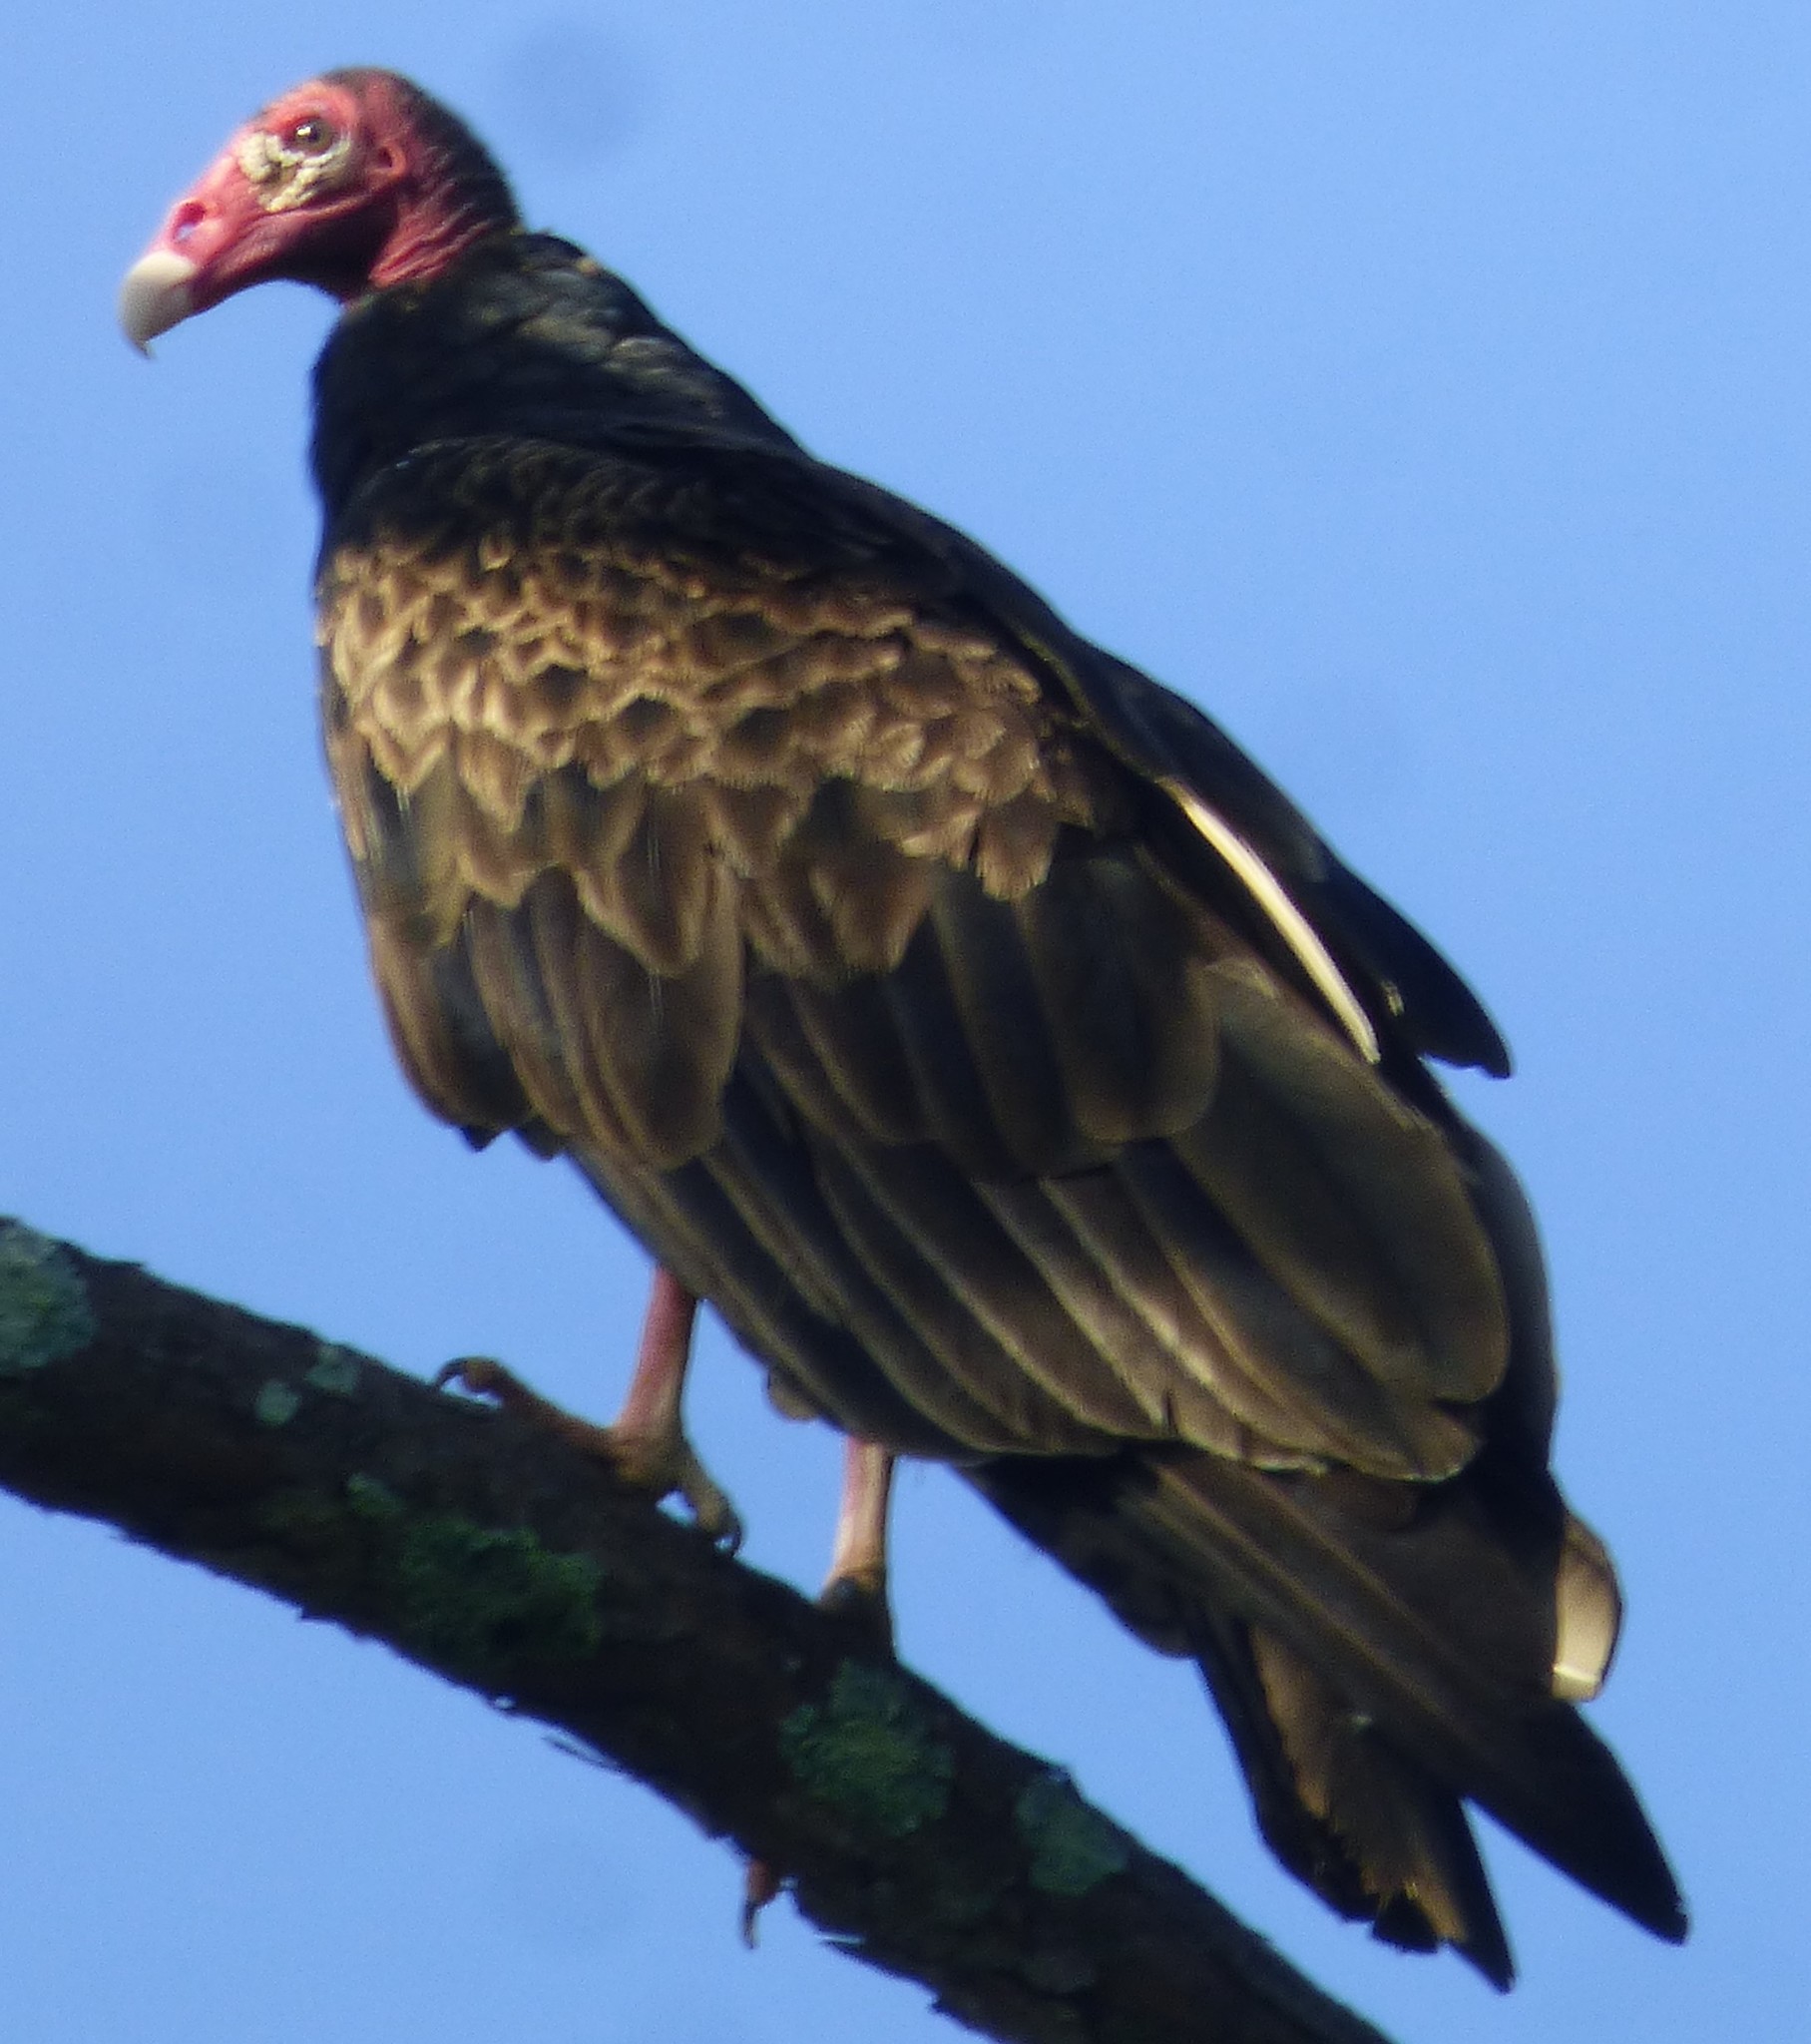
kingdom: Animalia
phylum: Chordata
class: Aves
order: Accipitriformes
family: Cathartidae
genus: Cathartes
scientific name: Cathartes aura
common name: Turkey vulture
